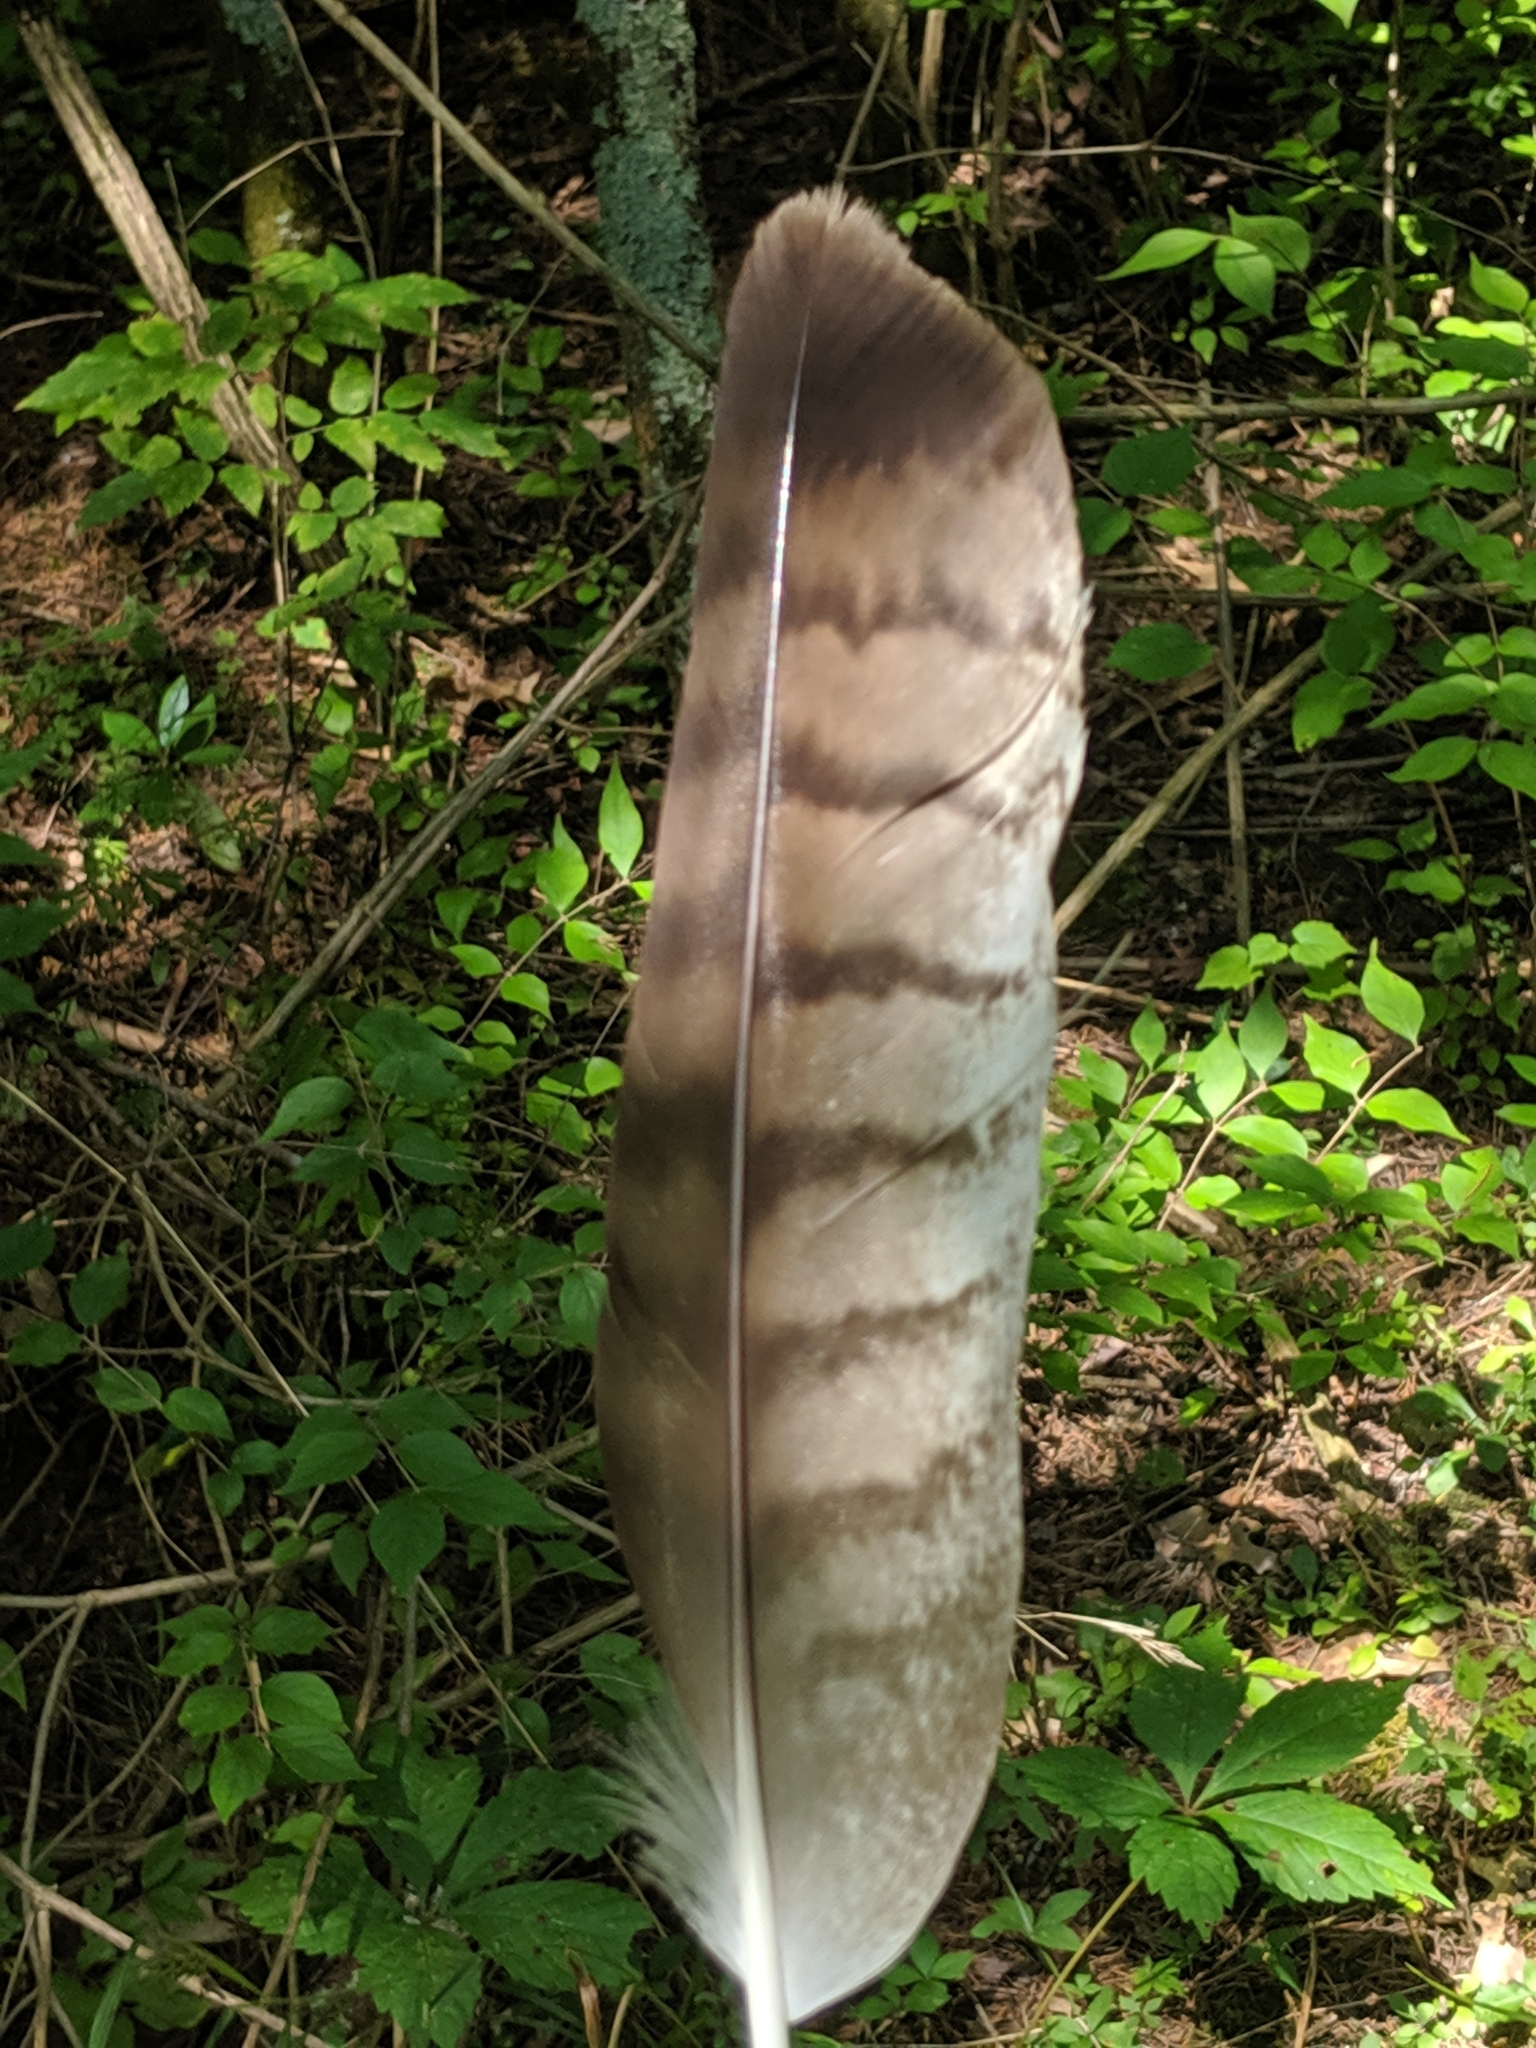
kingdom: Animalia
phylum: Chordata
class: Aves
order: Accipitriformes
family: Accipitridae
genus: Buteo
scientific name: Buteo jamaicensis
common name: Red-tailed hawk
